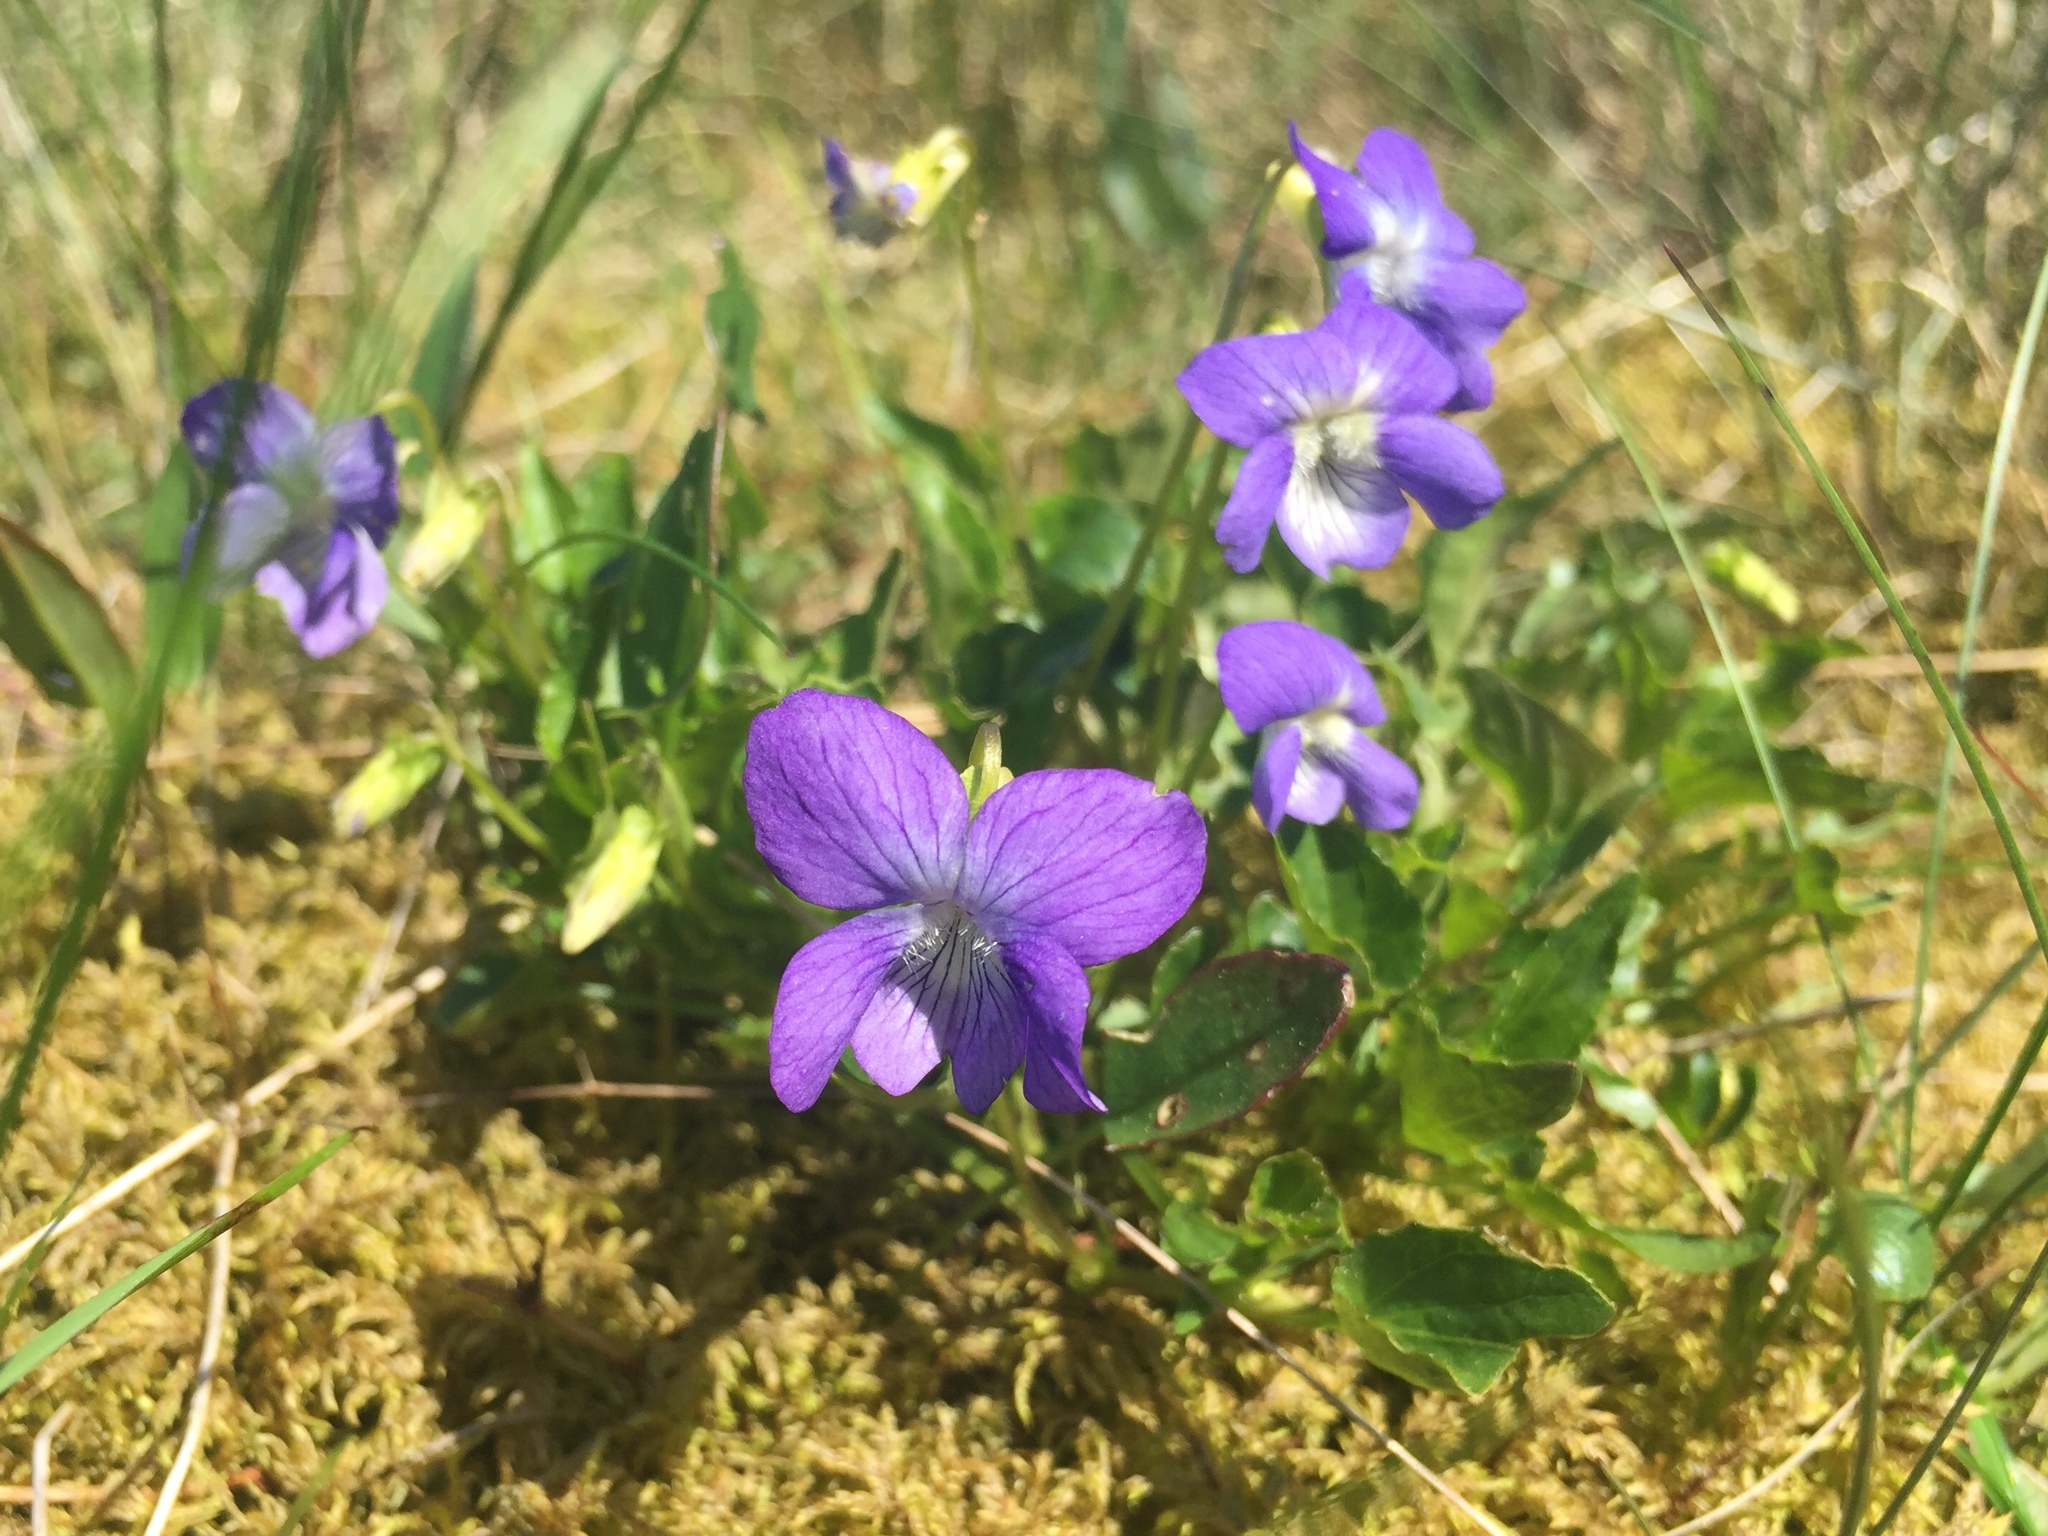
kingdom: Plantae
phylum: Tracheophyta
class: Magnoliopsida
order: Malpighiales
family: Violaceae
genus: Viola
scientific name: Viola riviniana
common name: Common dog-violet
